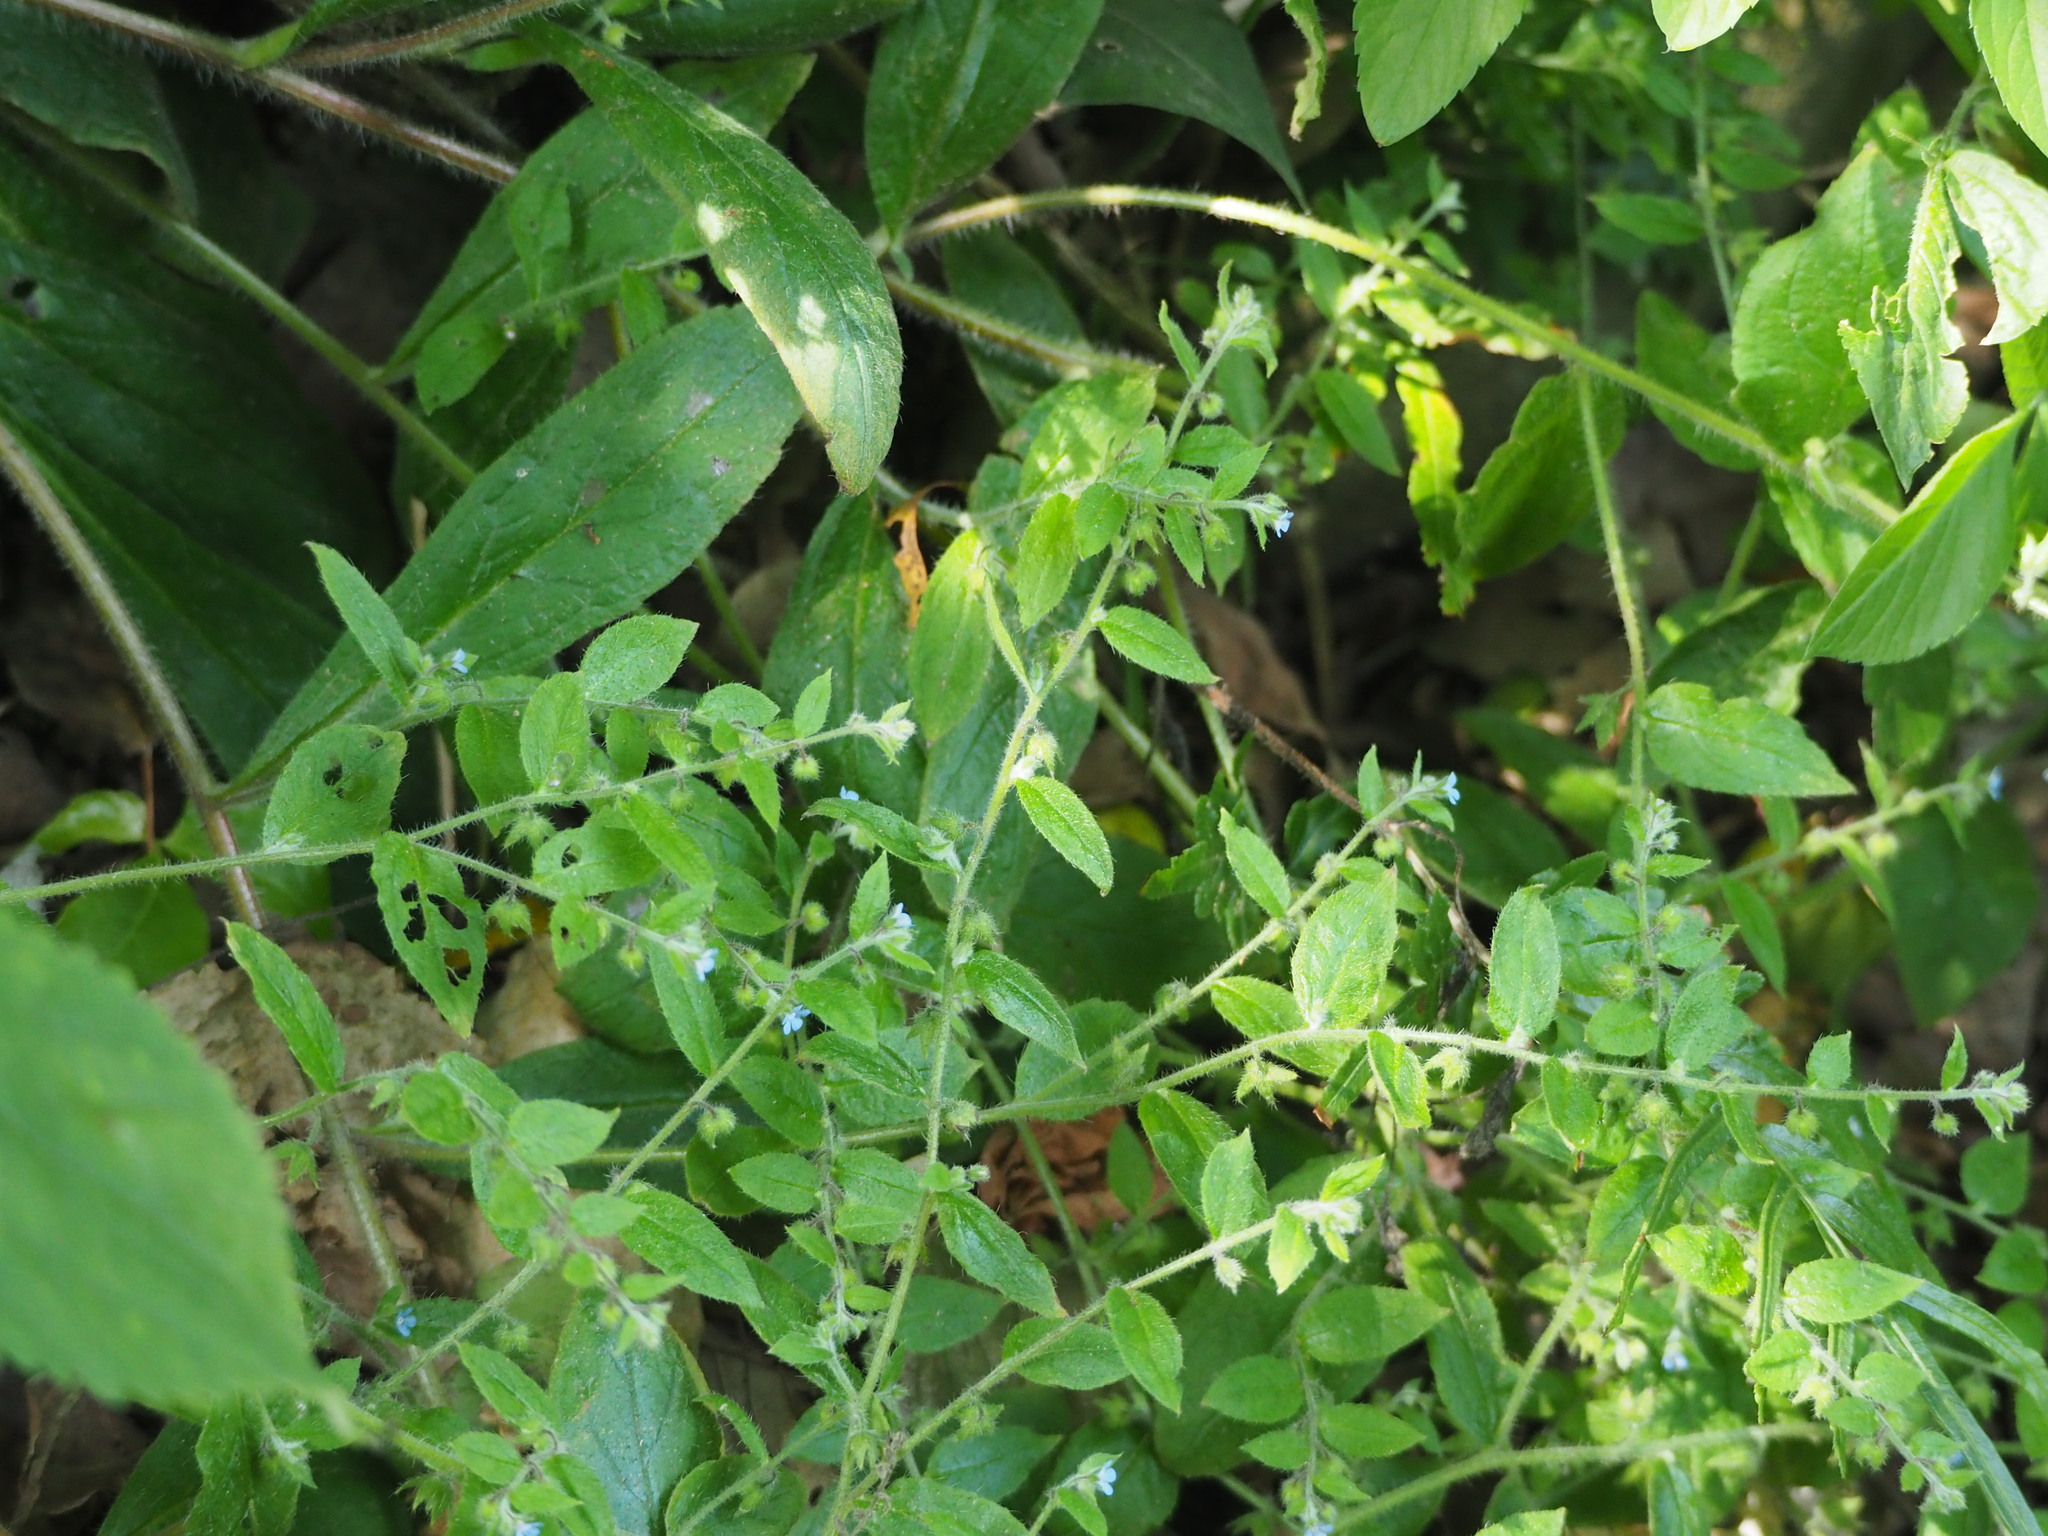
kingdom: Plantae
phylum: Tracheophyta
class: Magnoliopsida
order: Boraginales
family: Boraginaceae
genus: Thyrocarpus
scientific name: Thyrocarpus sampsonii
